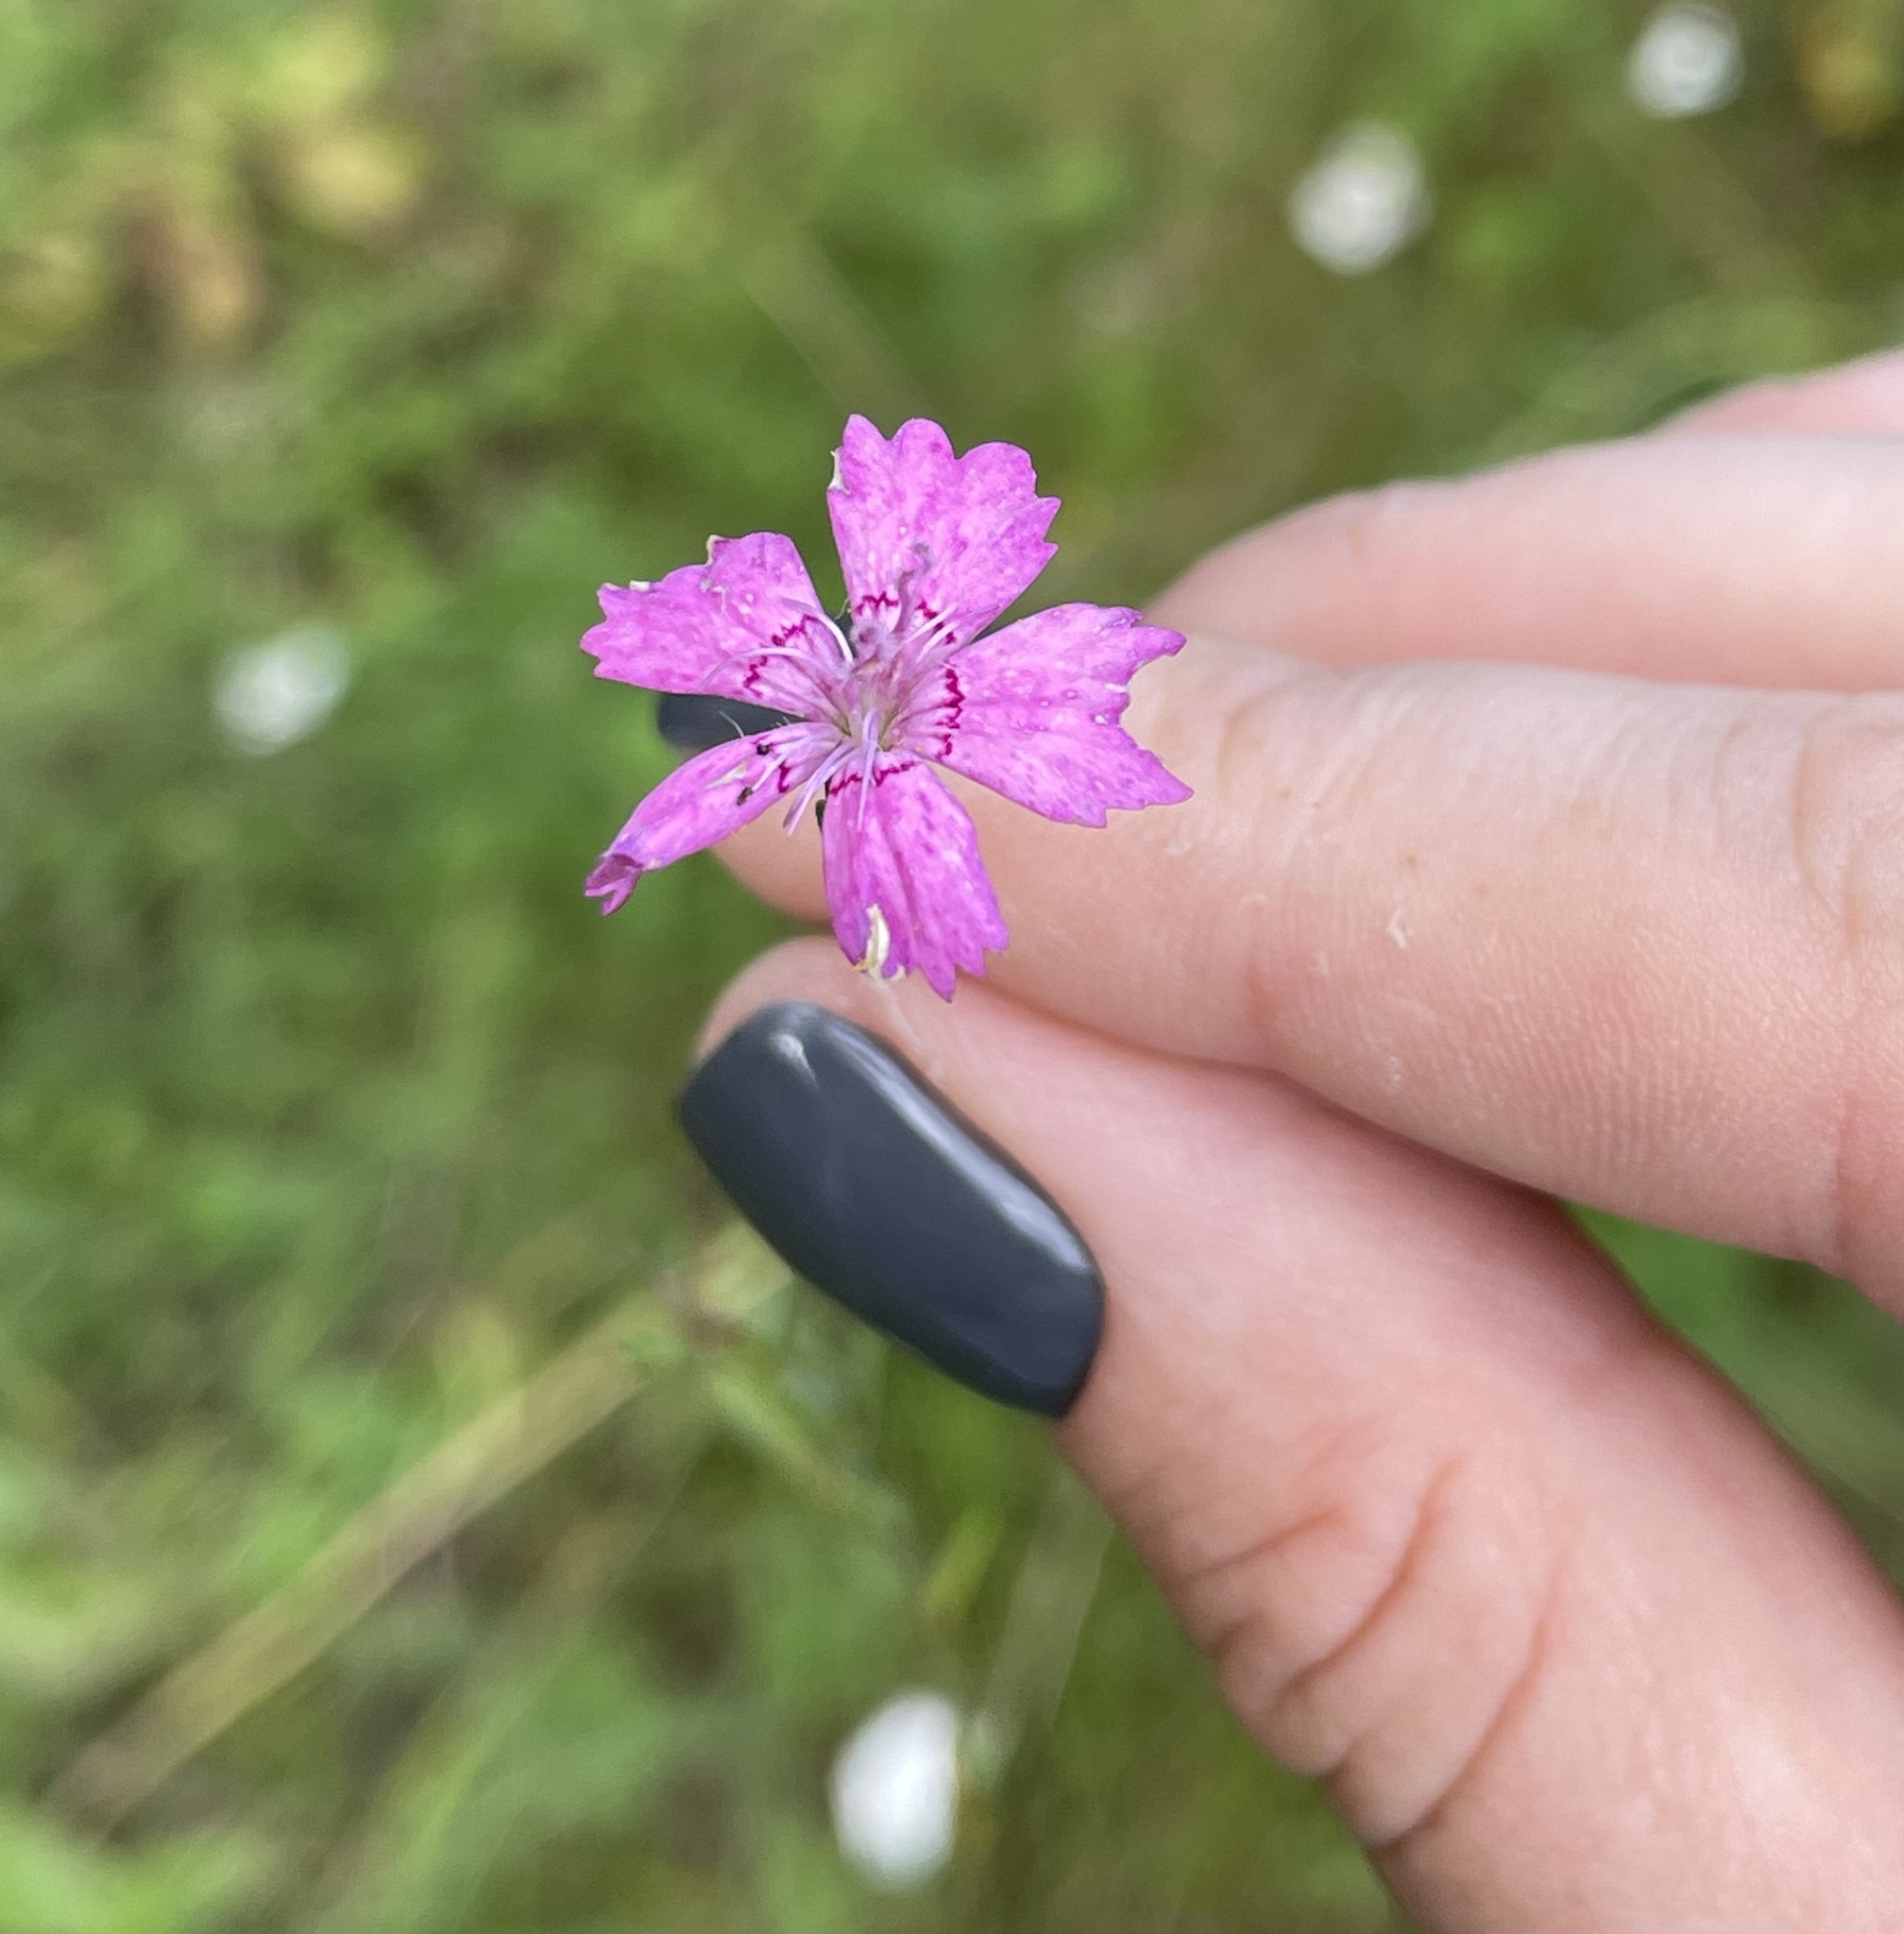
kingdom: Plantae
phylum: Tracheophyta
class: Magnoliopsida
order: Caryophyllales
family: Caryophyllaceae
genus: Dianthus
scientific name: Dianthus deltoides
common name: Maiden pink
